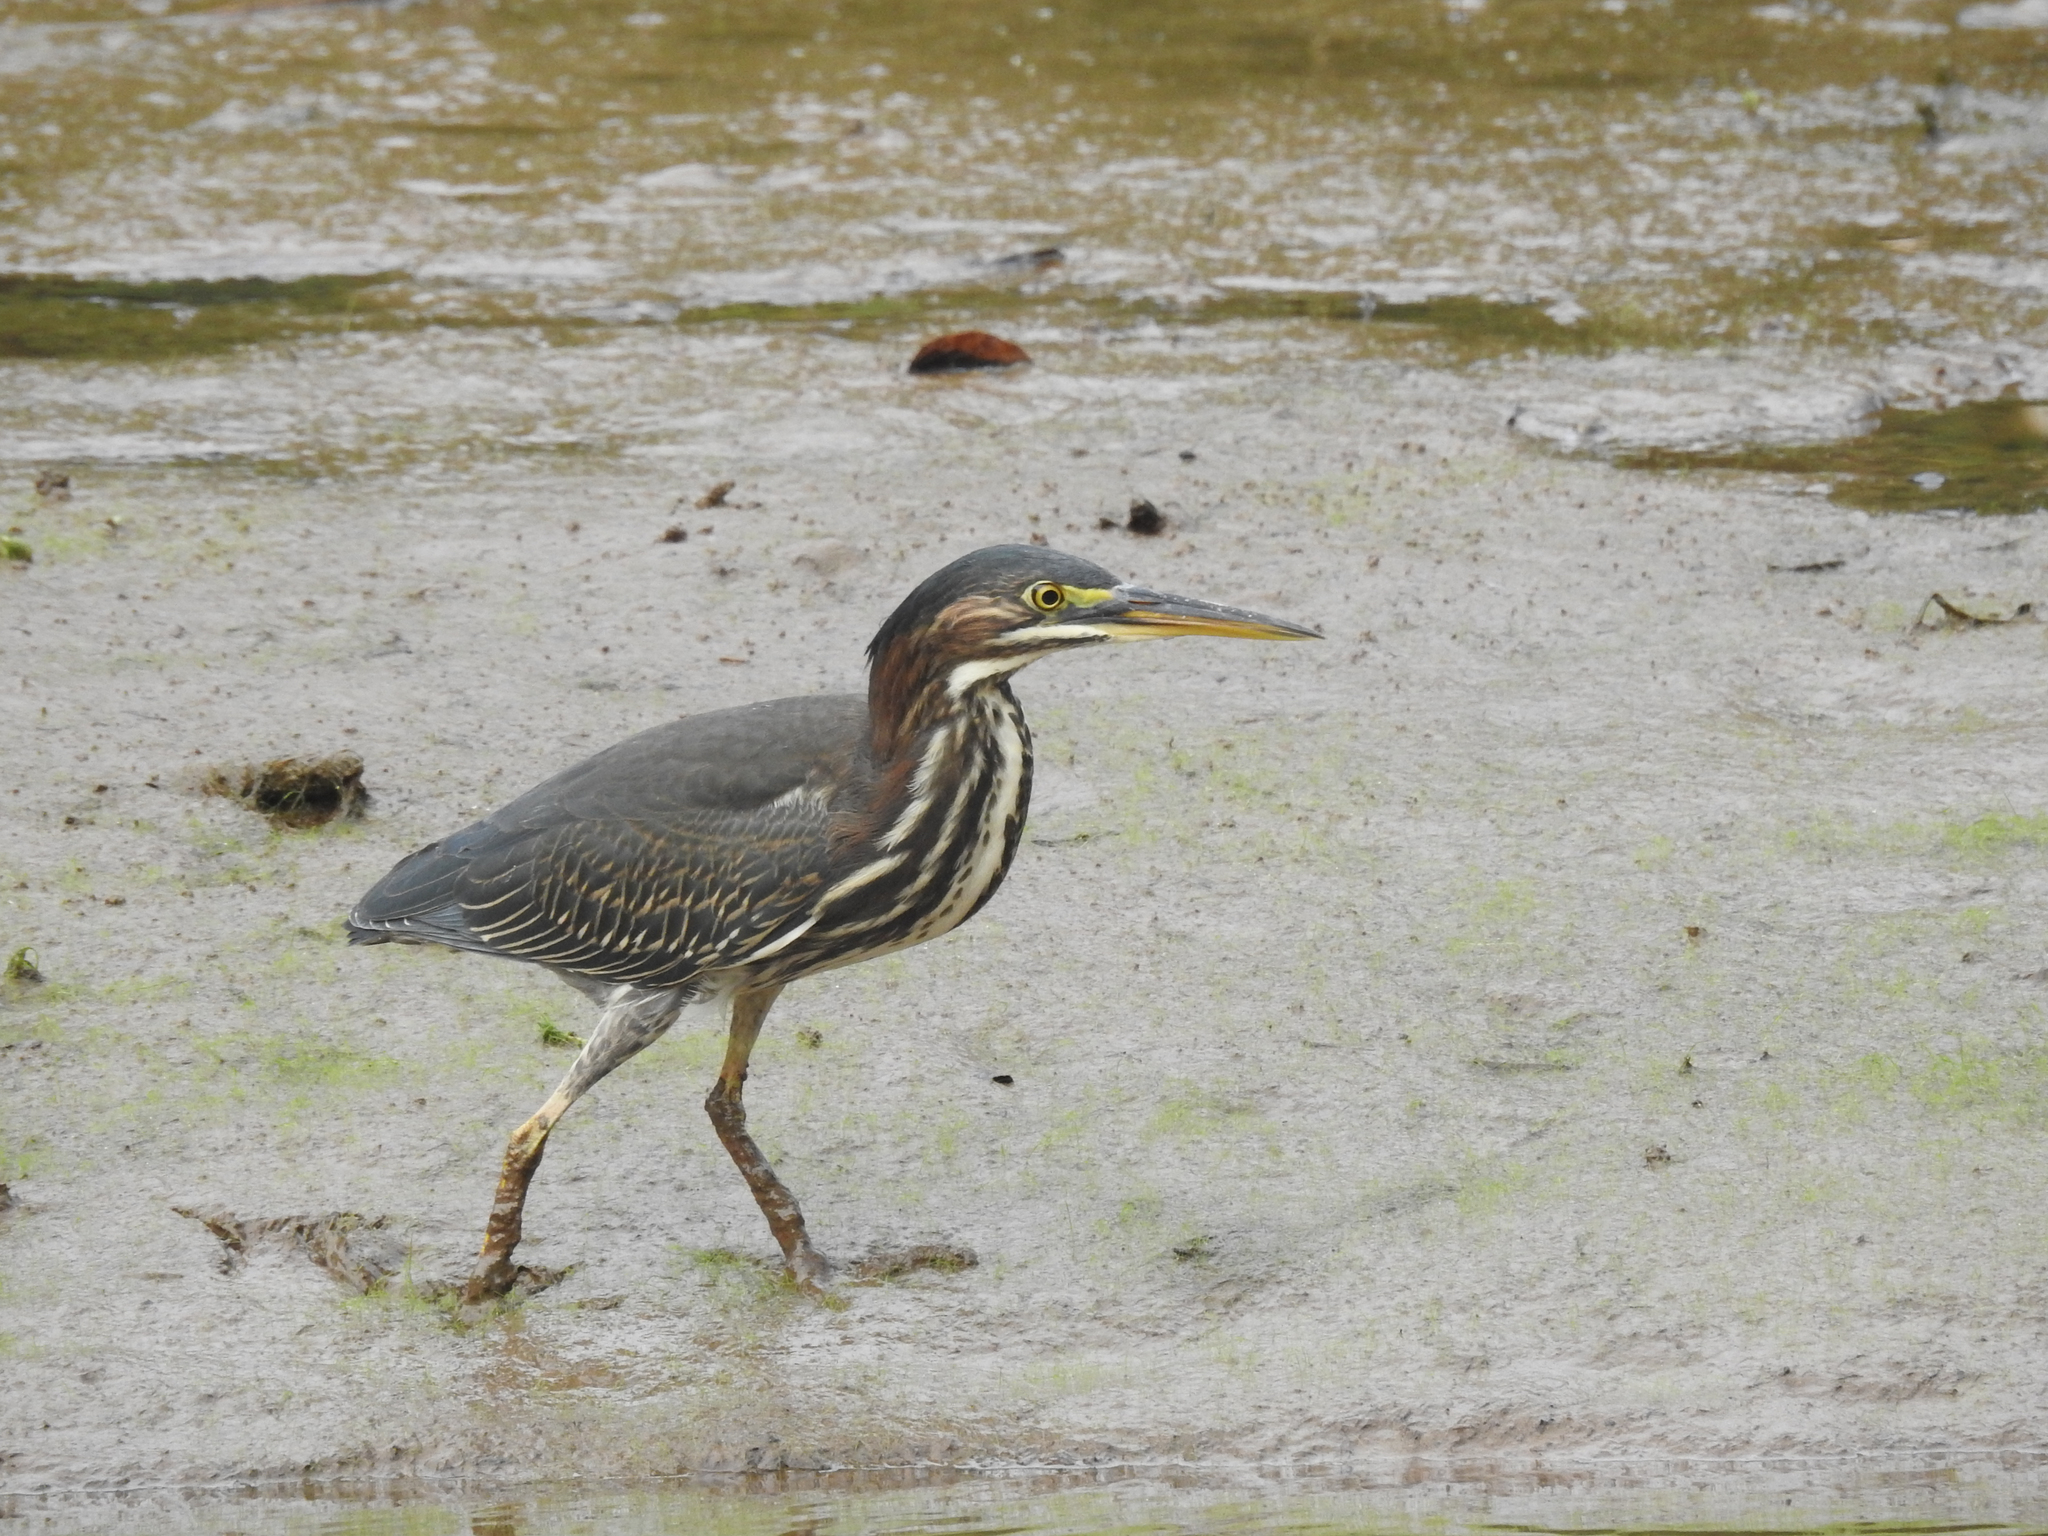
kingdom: Animalia
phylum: Chordata
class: Aves
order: Pelecaniformes
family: Ardeidae
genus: Butorides
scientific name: Butorides virescens
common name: Green heron
